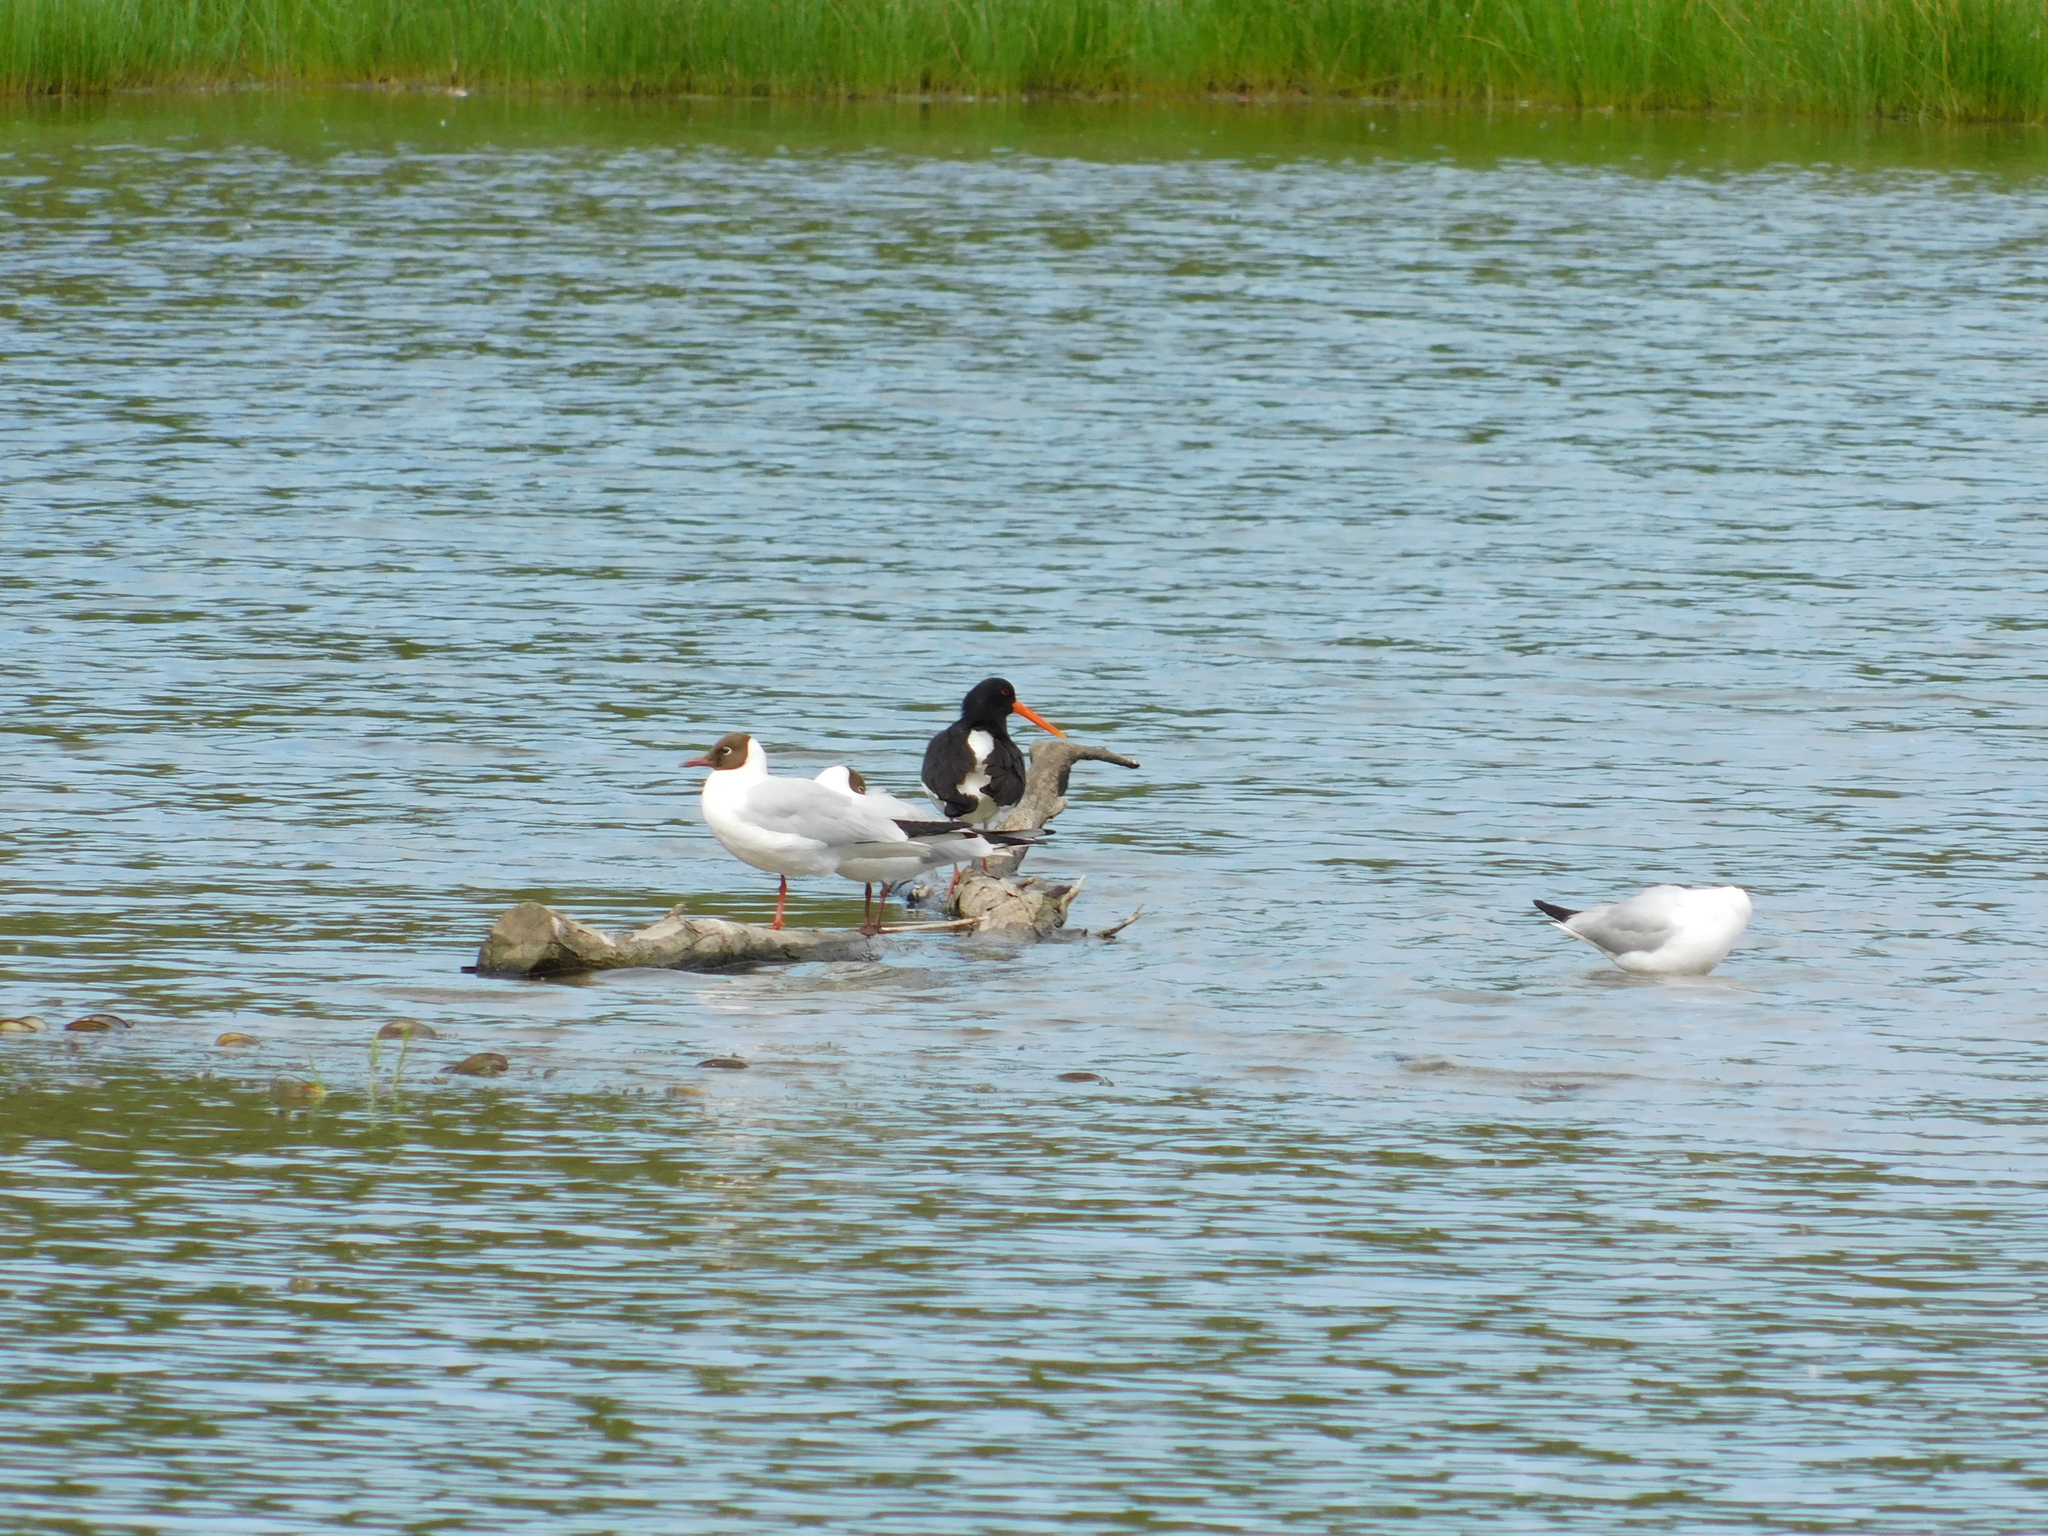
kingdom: Animalia
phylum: Chordata
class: Aves
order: Charadriiformes
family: Haematopodidae
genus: Haematopus
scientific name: Haematopus ostralegus
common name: Eurasian oystercatcher
